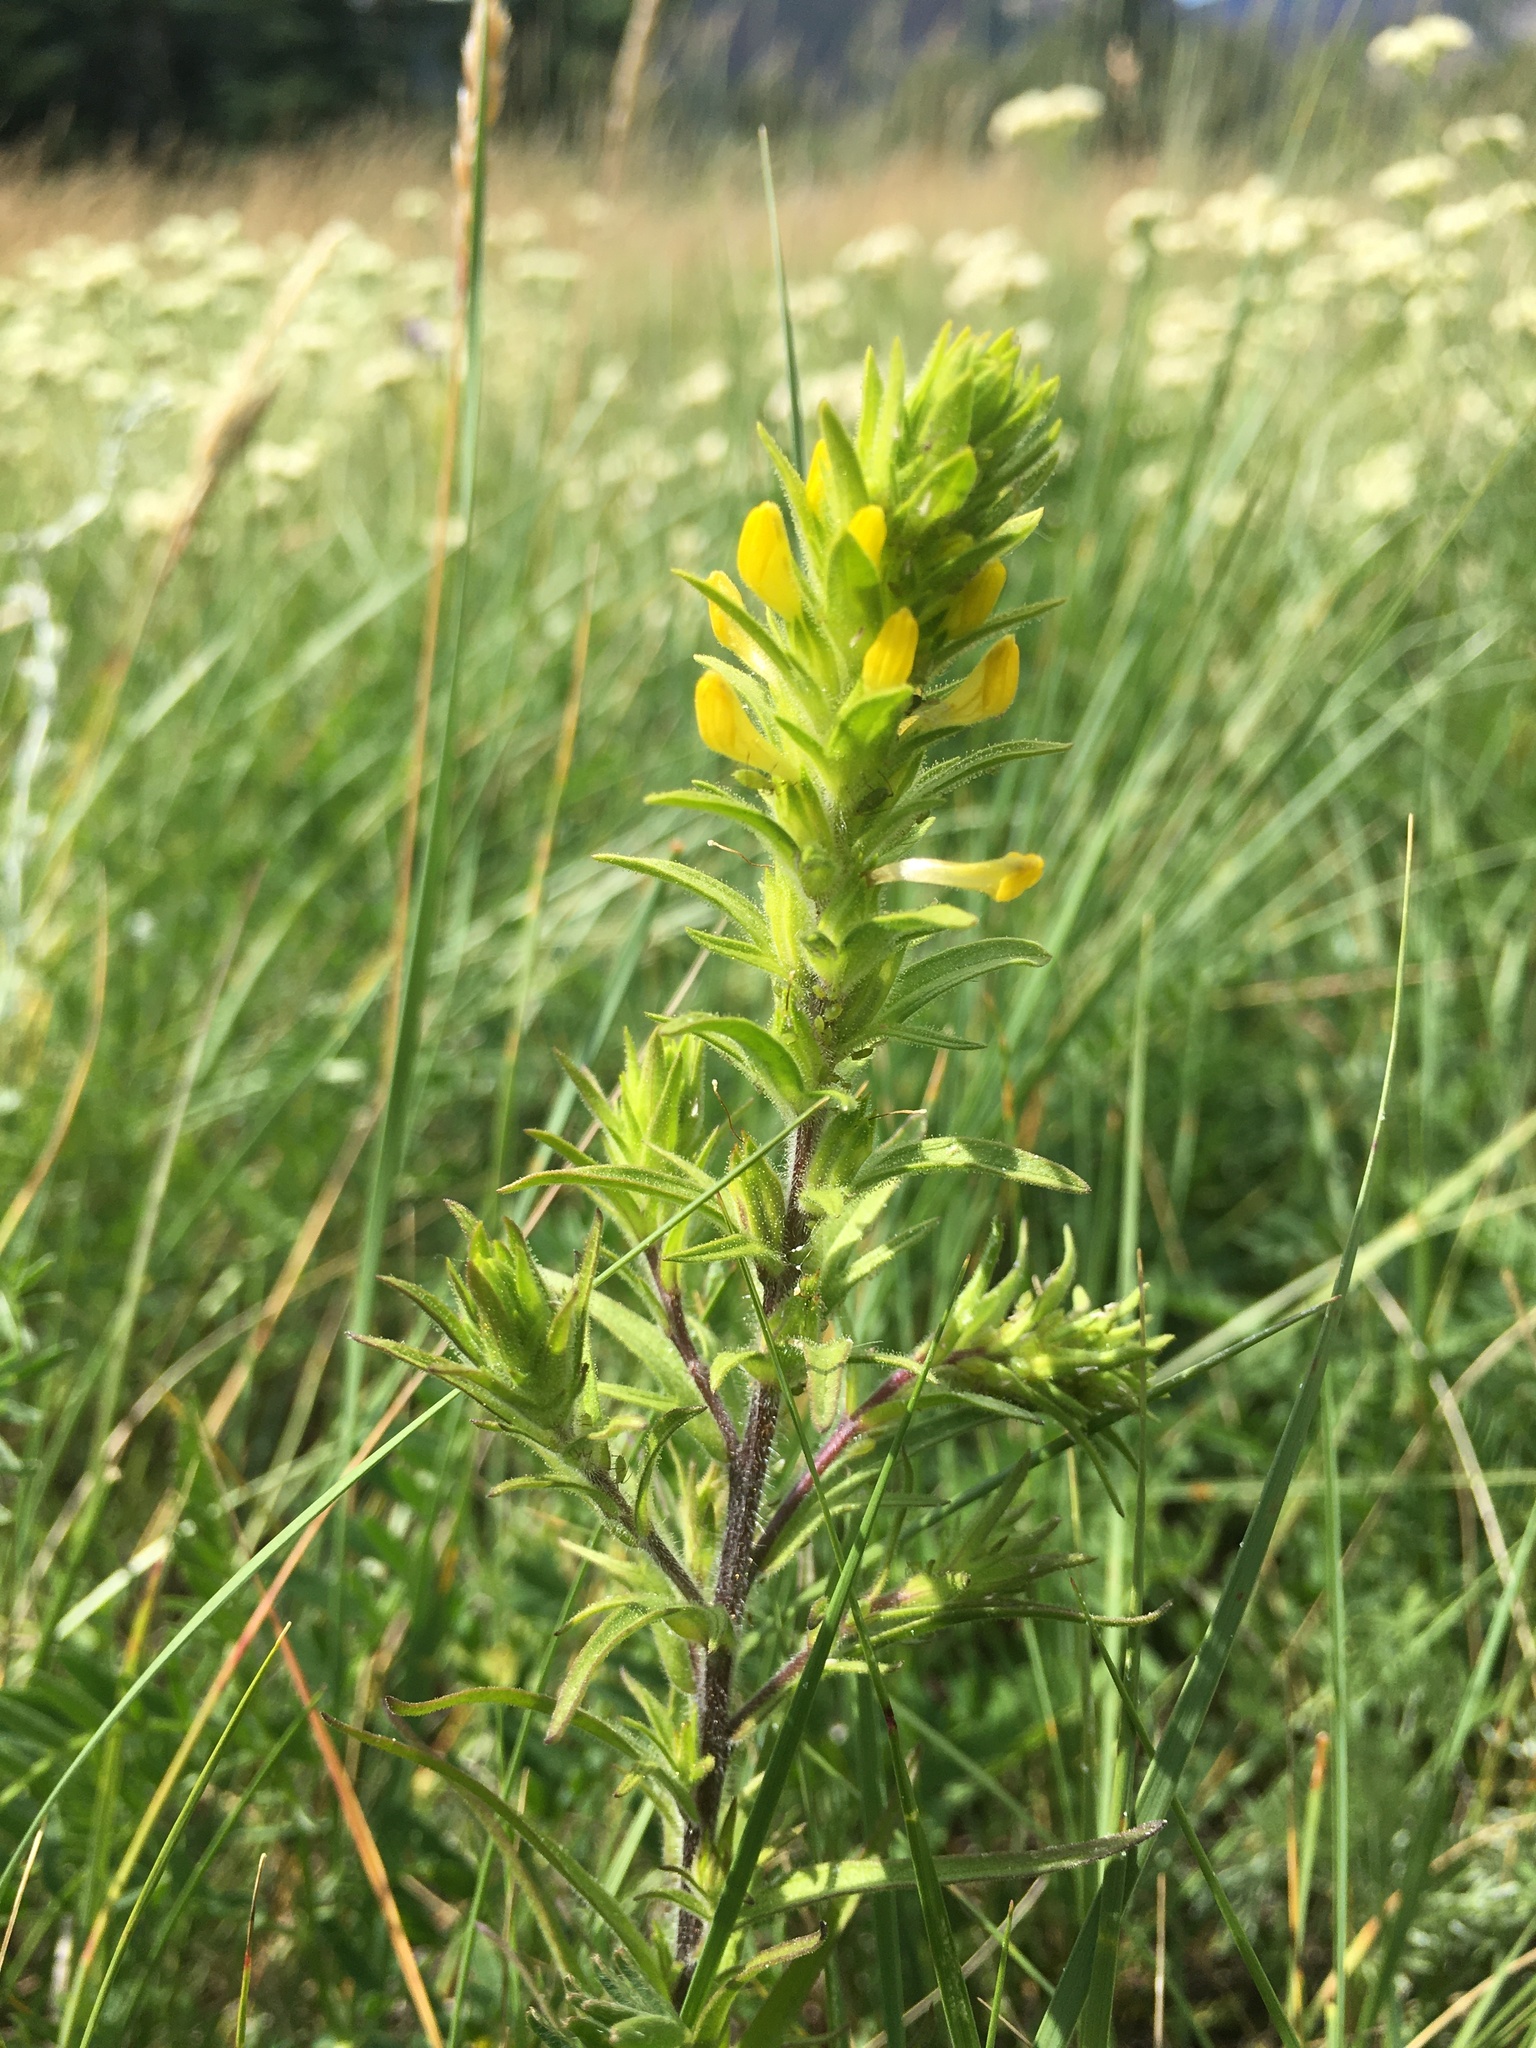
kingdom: Plantae
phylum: Tracheophyta
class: Magnoliopsida
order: Lamiales
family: Orobanchaceae
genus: Orthocarpus
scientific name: Orthocarpus luteus
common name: Golden-tongue owl's-clover
